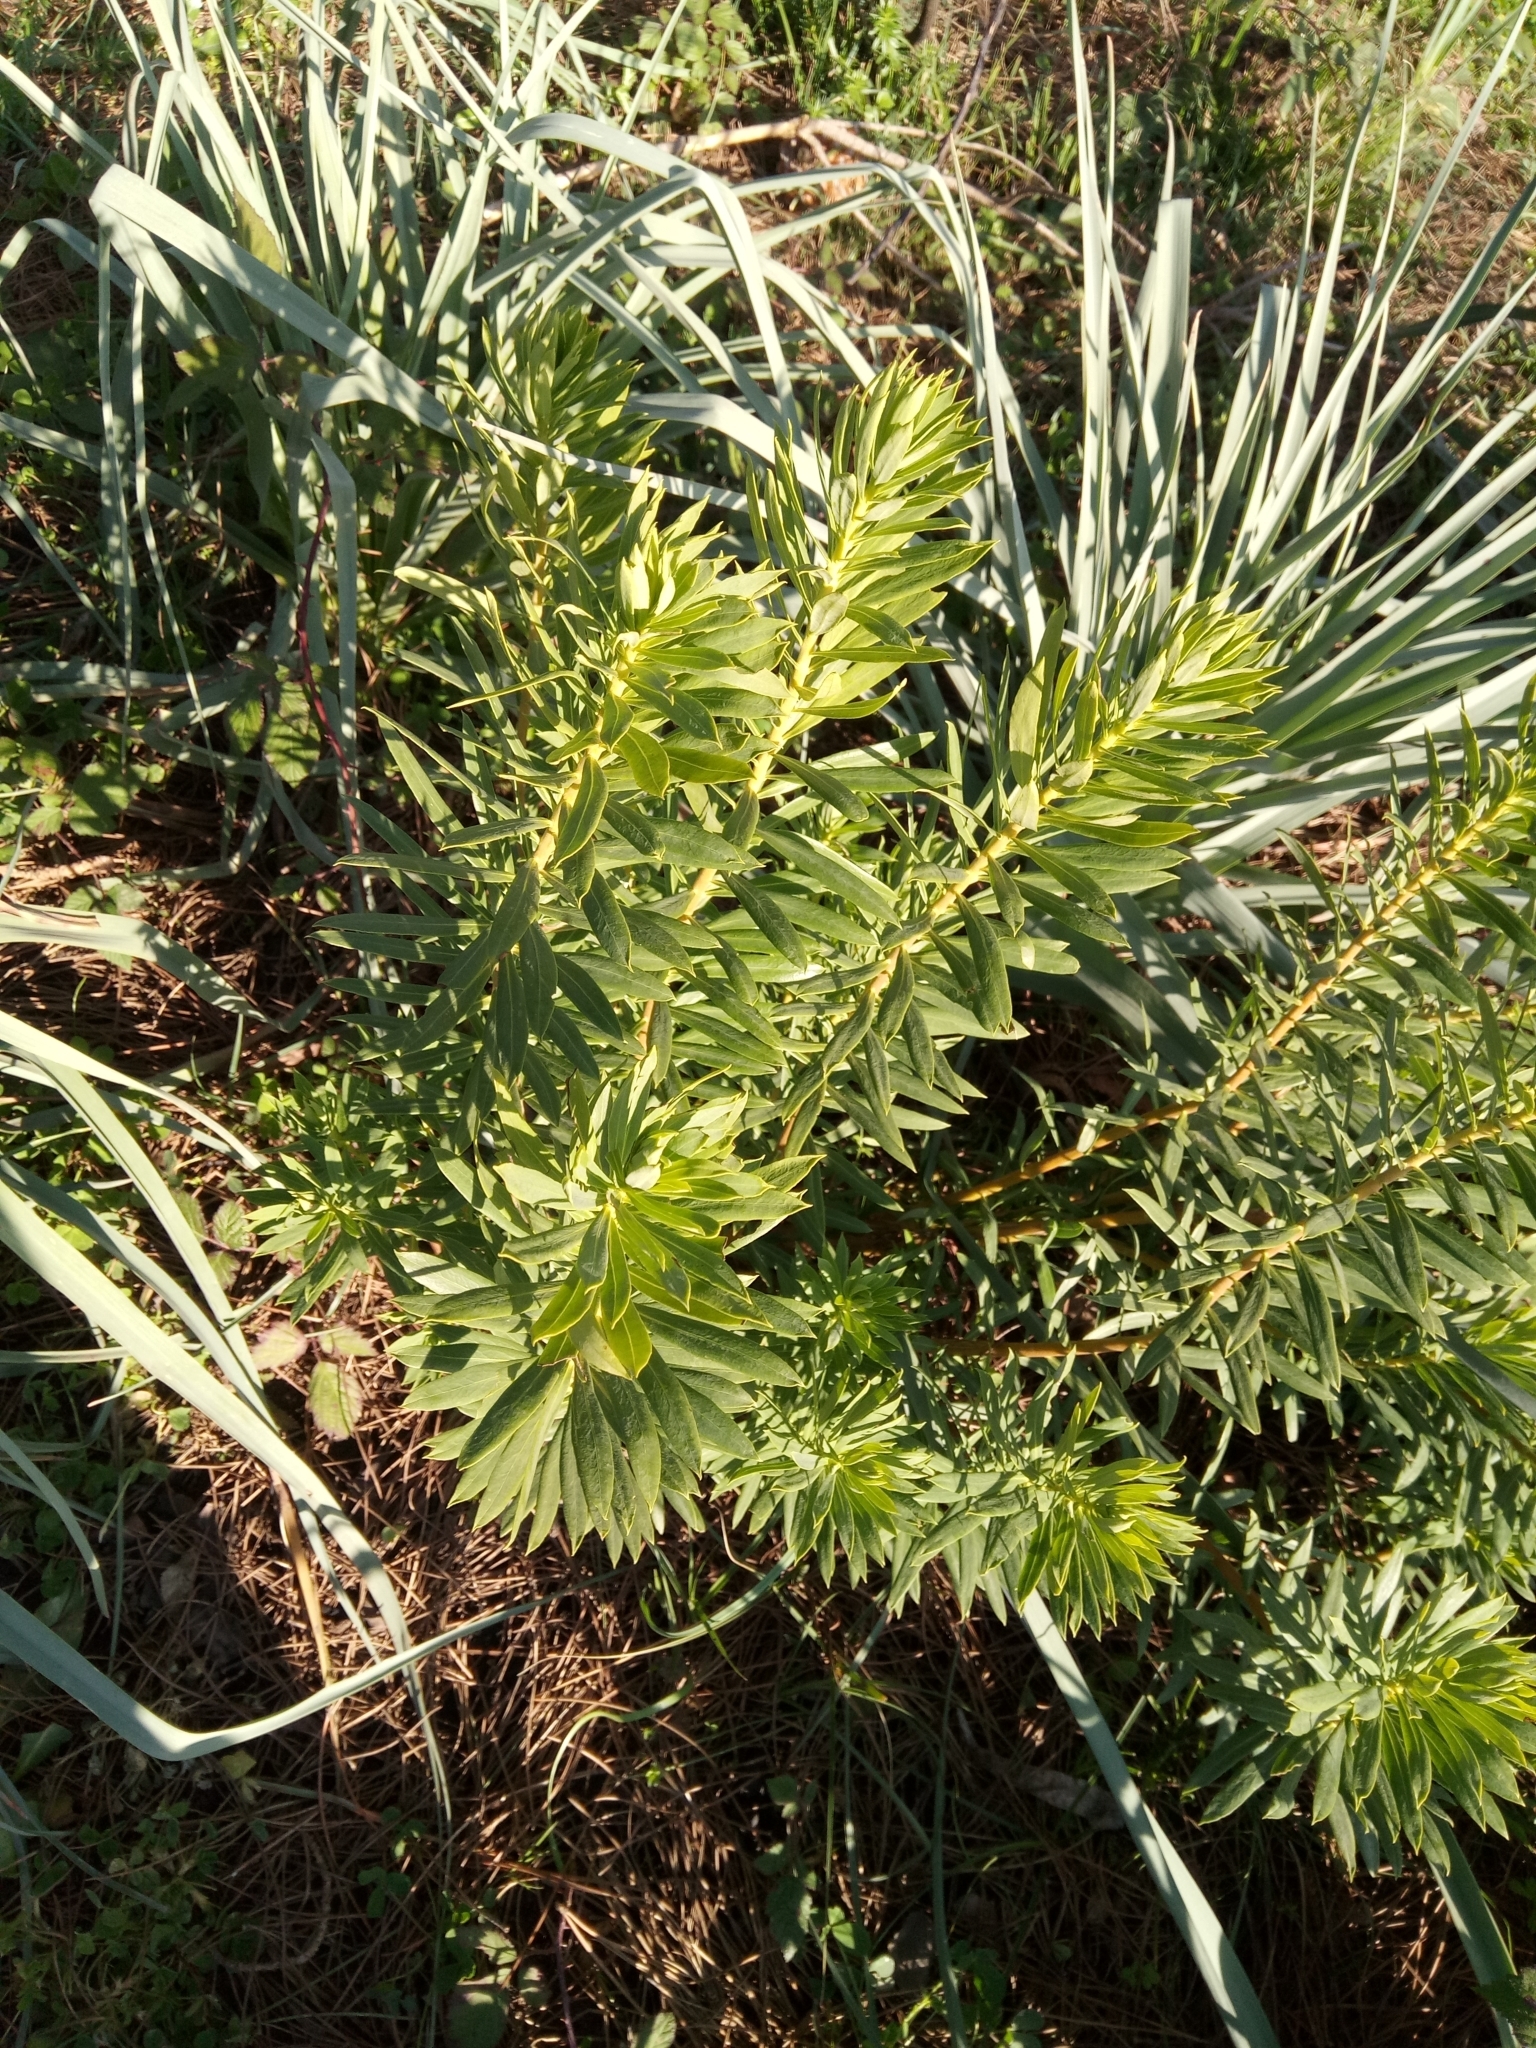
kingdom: Plantae
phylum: Tracheophyta
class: Magnoliopsida
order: Malvales
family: Thymelaeaceae
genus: Daphne
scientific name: Daphne gnidium
